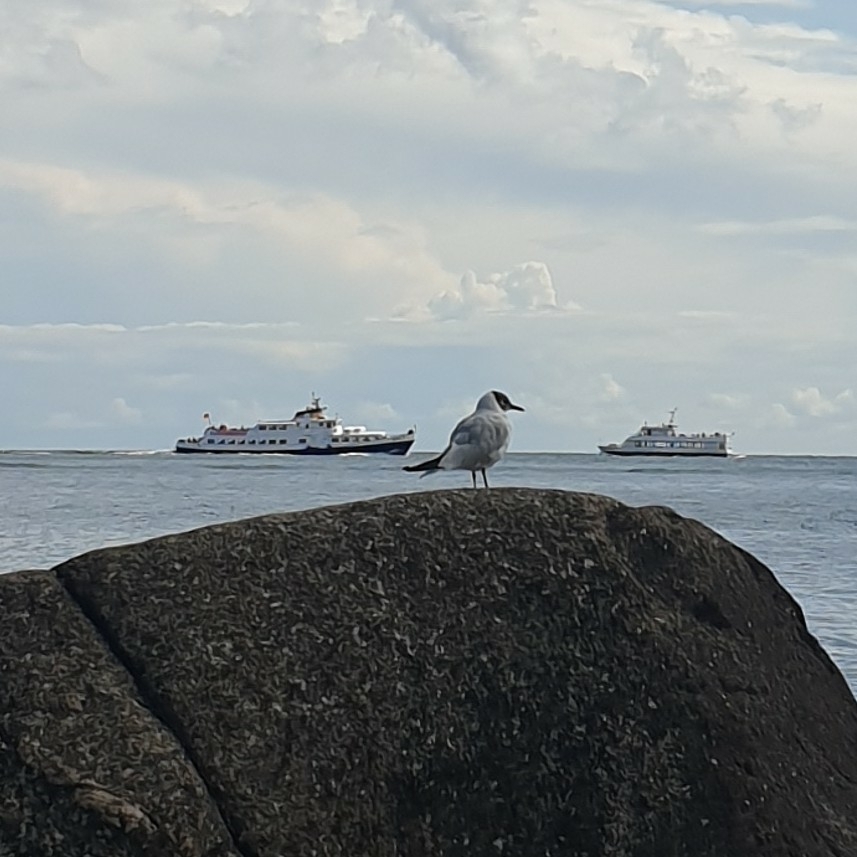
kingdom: Animalia
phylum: Chordata
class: Aves
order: Charadriiformes
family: Laridae
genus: Chroicocephalus
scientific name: Chroicocephalus ridibundus
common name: Black-headed gull
